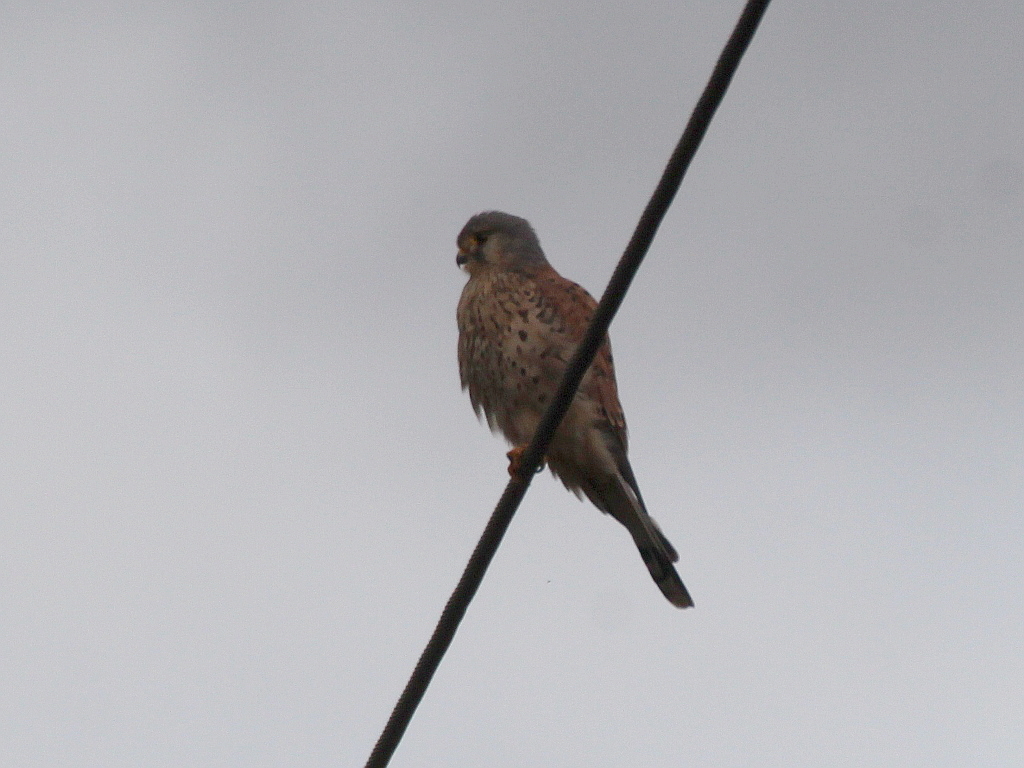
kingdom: Animalia
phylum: Chordata
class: Aves
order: Falconiformes
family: Falconidae
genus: Falco
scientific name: Falco tinnunculus
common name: Common kestrel
